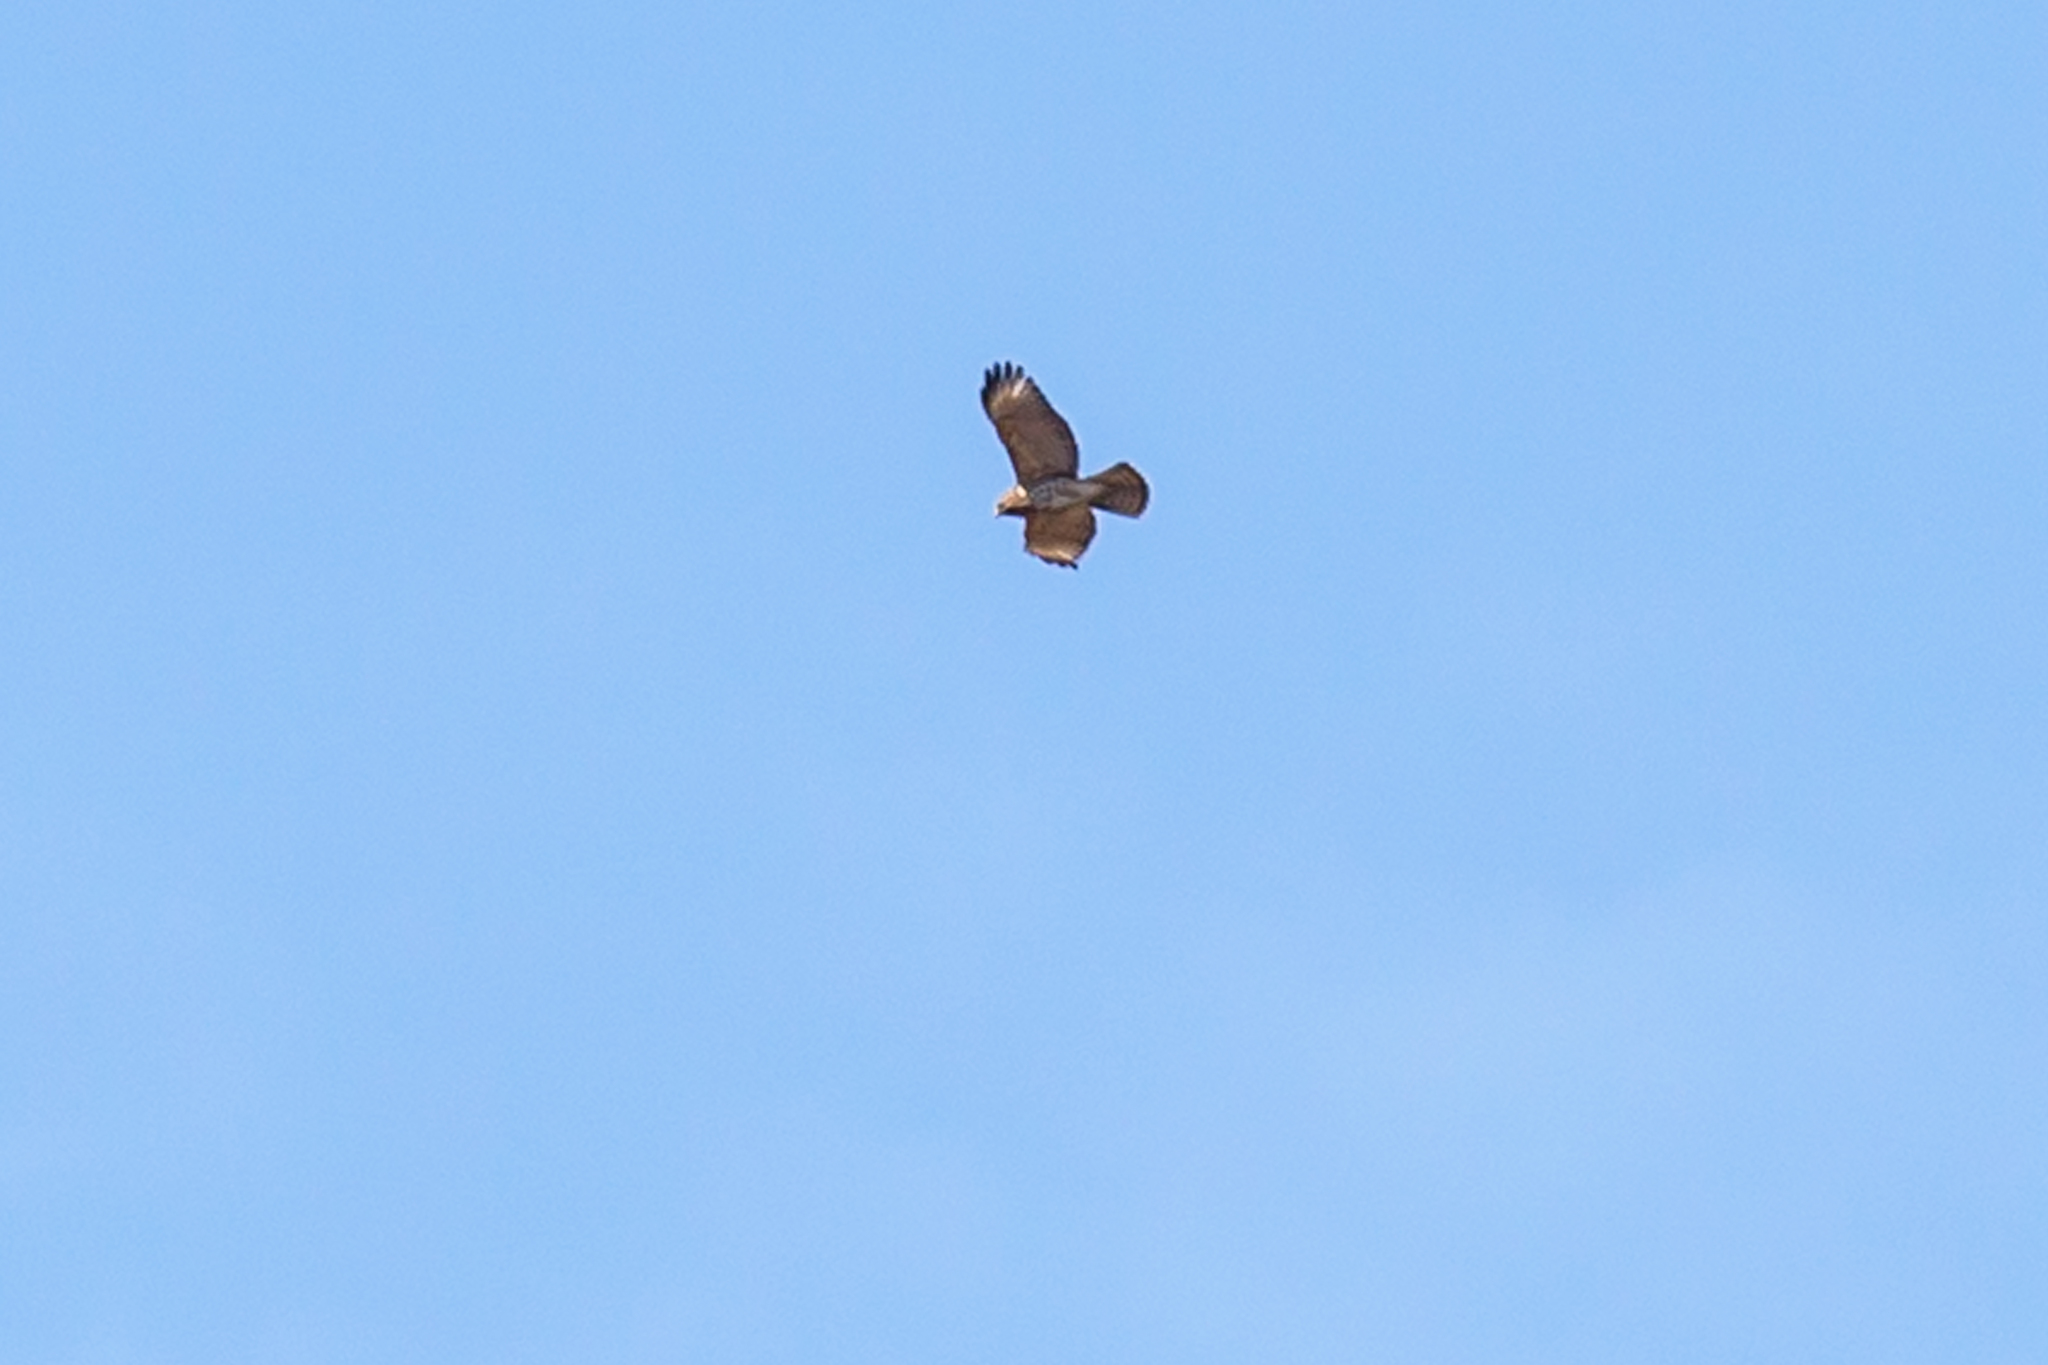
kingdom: Animalia
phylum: Chordata
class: Aves
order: Accipitriformes
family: Accipitridae
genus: Buteo
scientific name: Buteo lineatus
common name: Red-shouldered hawk
